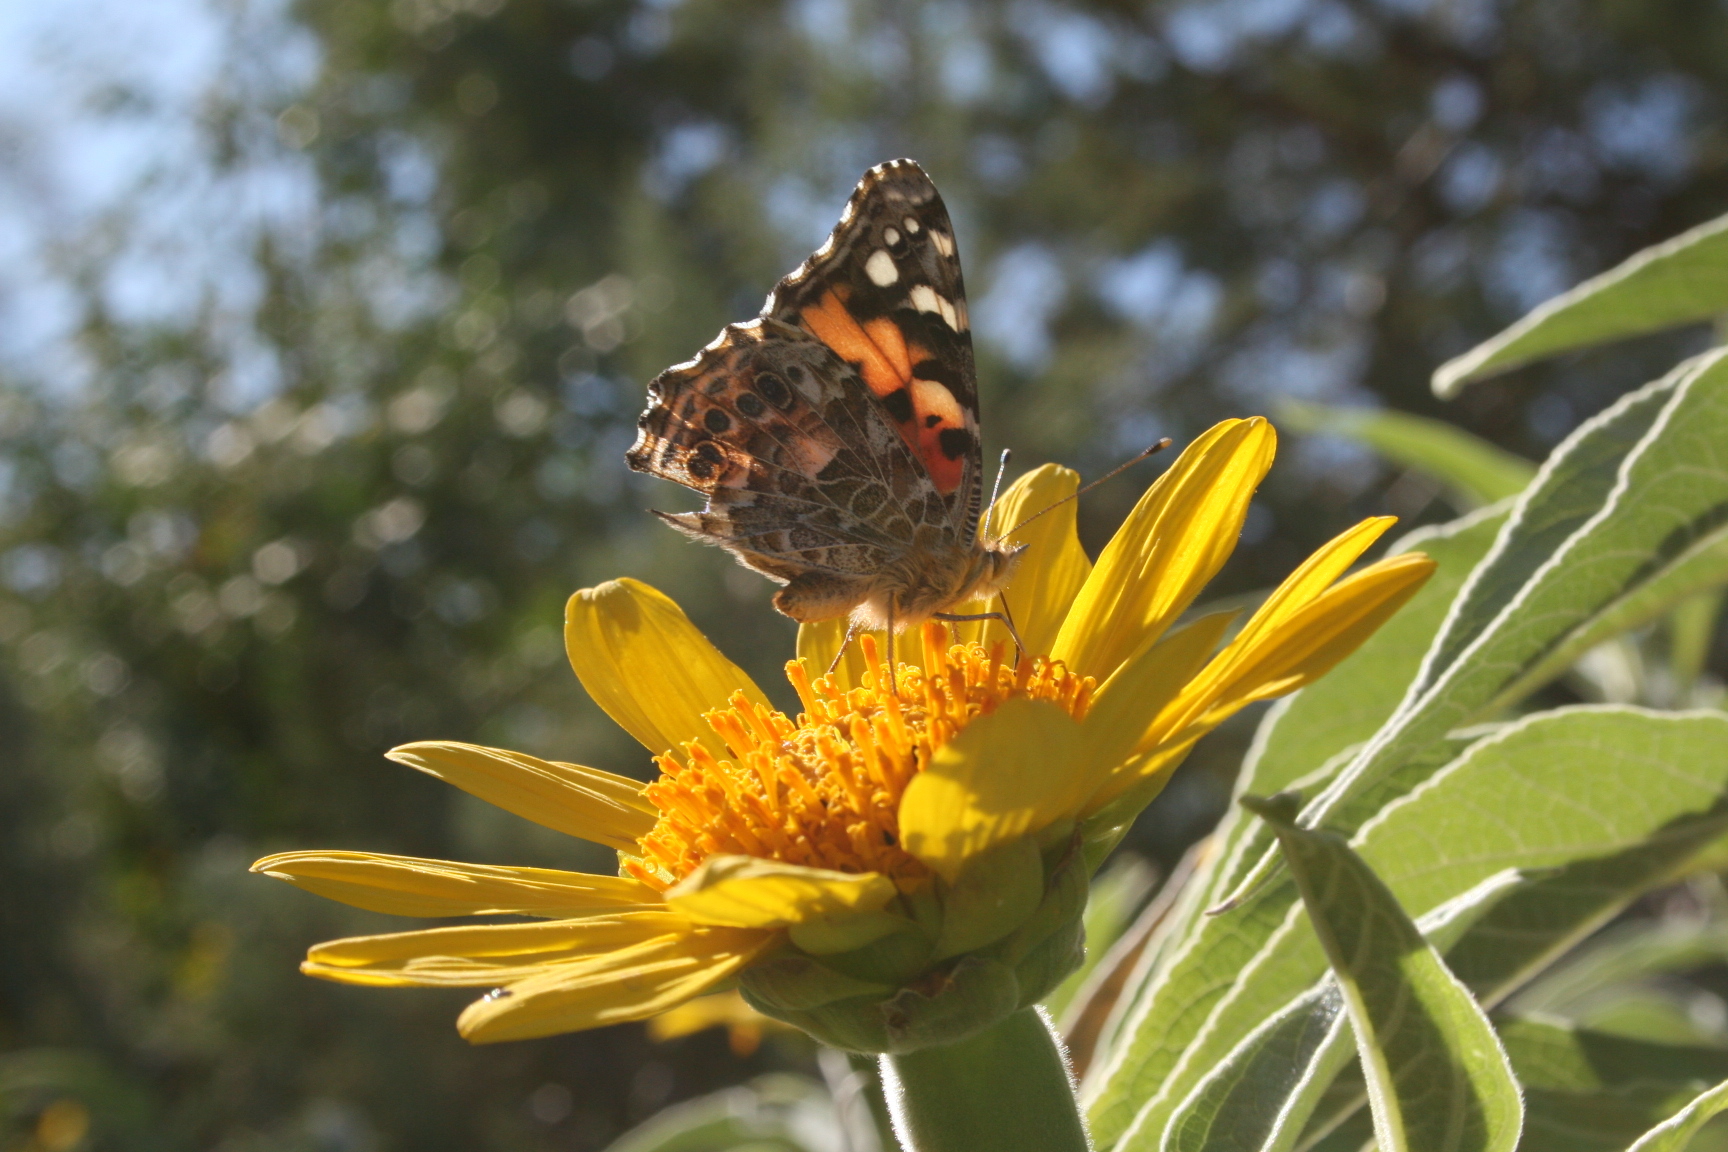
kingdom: Animalia
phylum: Arthropoda
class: Insecta
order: Lepidoptera
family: Nymphalidae
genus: Vanessa
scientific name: Vanessa cardui
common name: Painted lady
